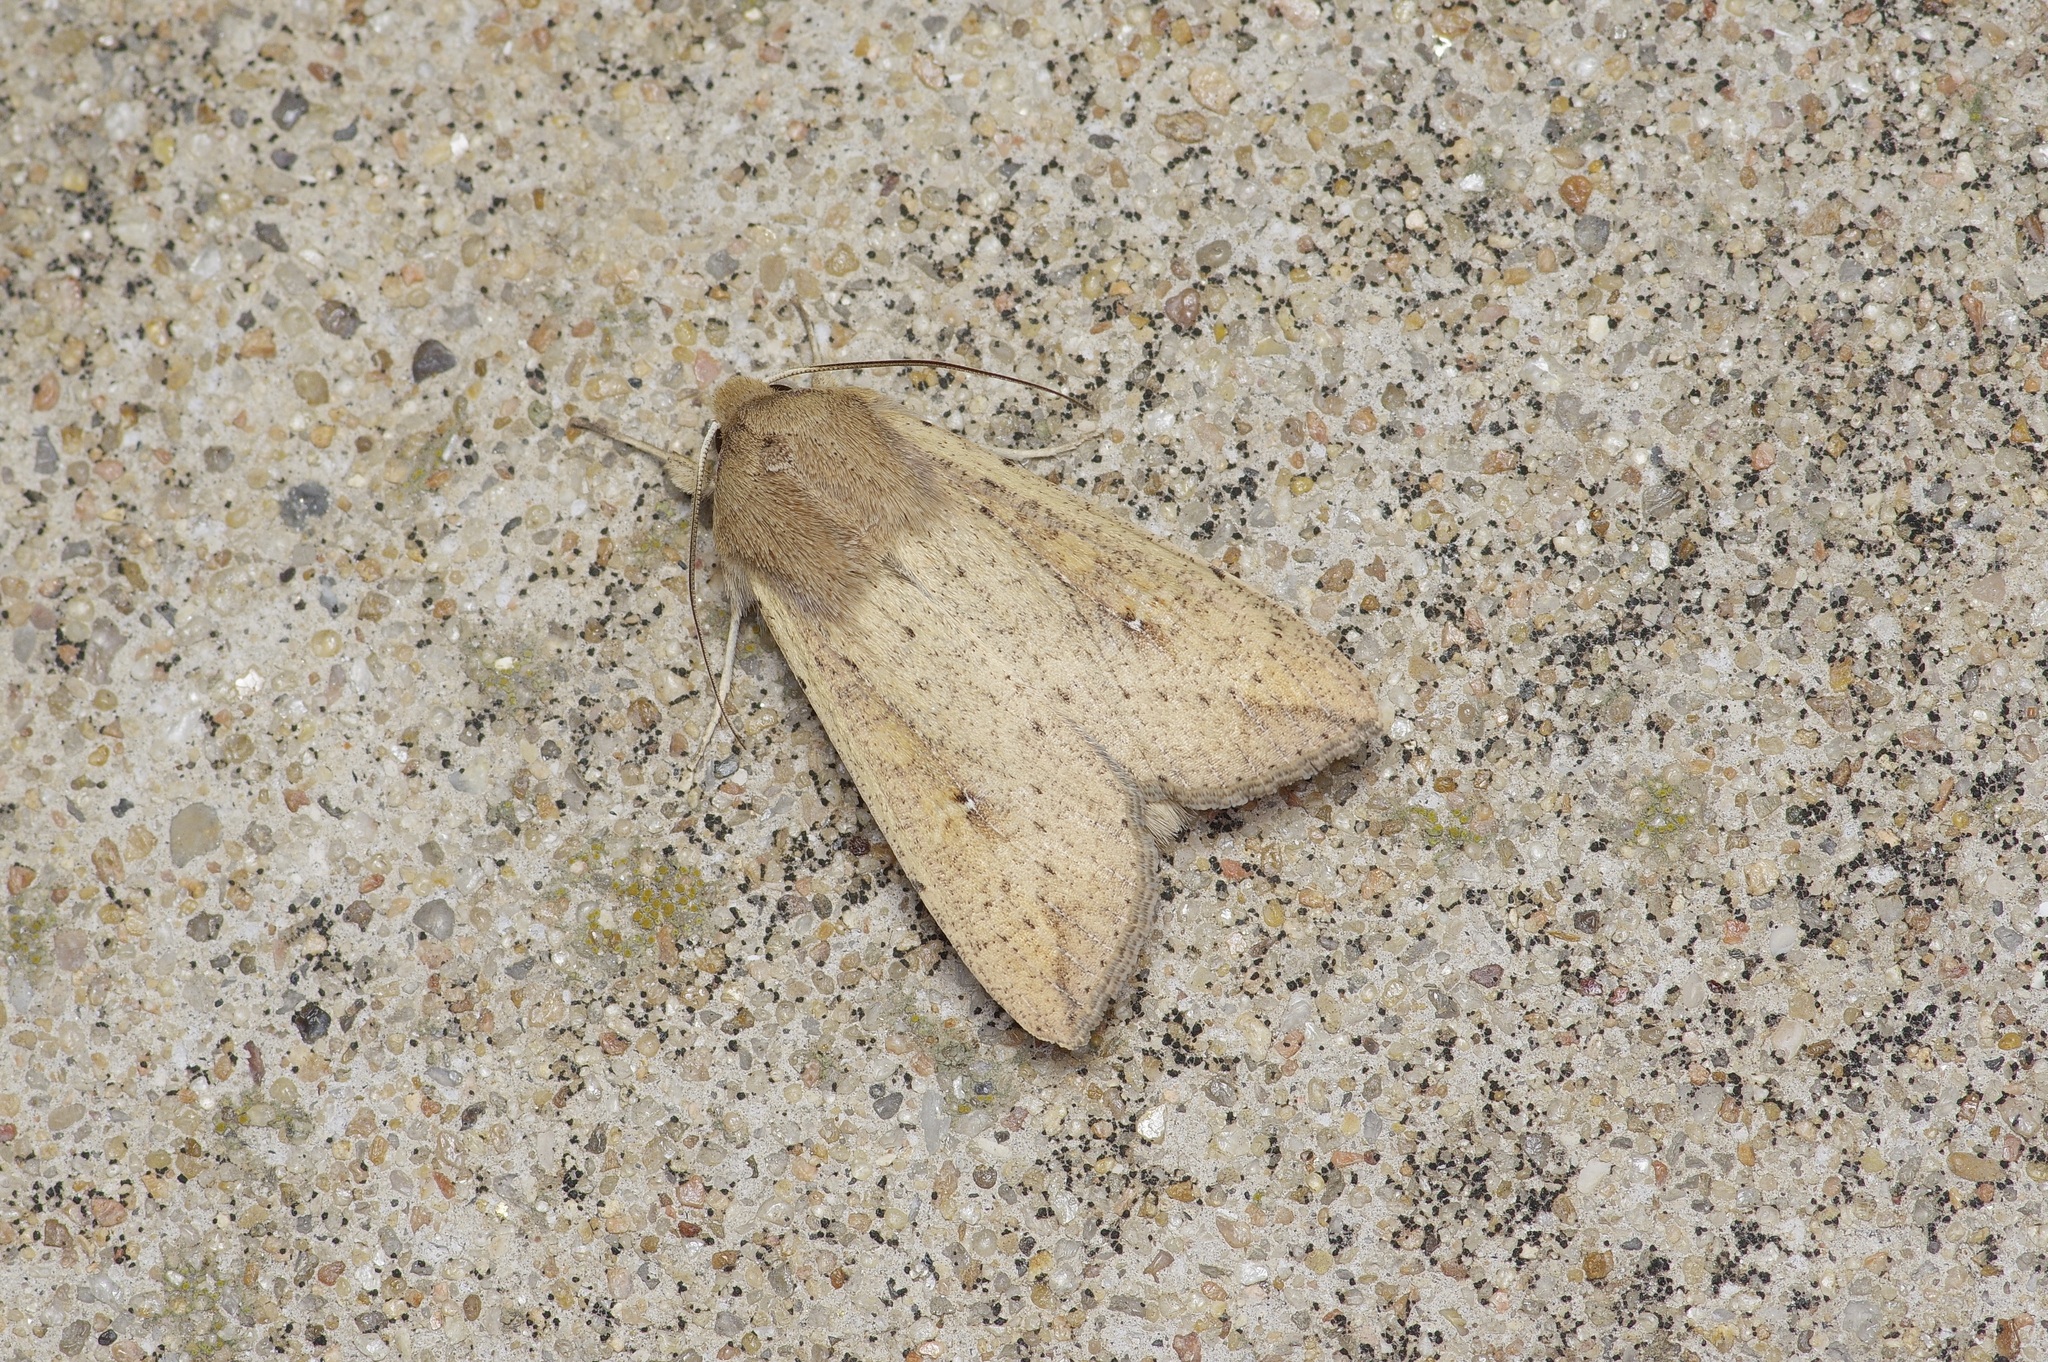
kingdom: Animalia
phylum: Arthropoda
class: Insecta
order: Lepidoptera
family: Noctuidae
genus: Mythimna
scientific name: Mythimna unipuncta
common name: White-speck
